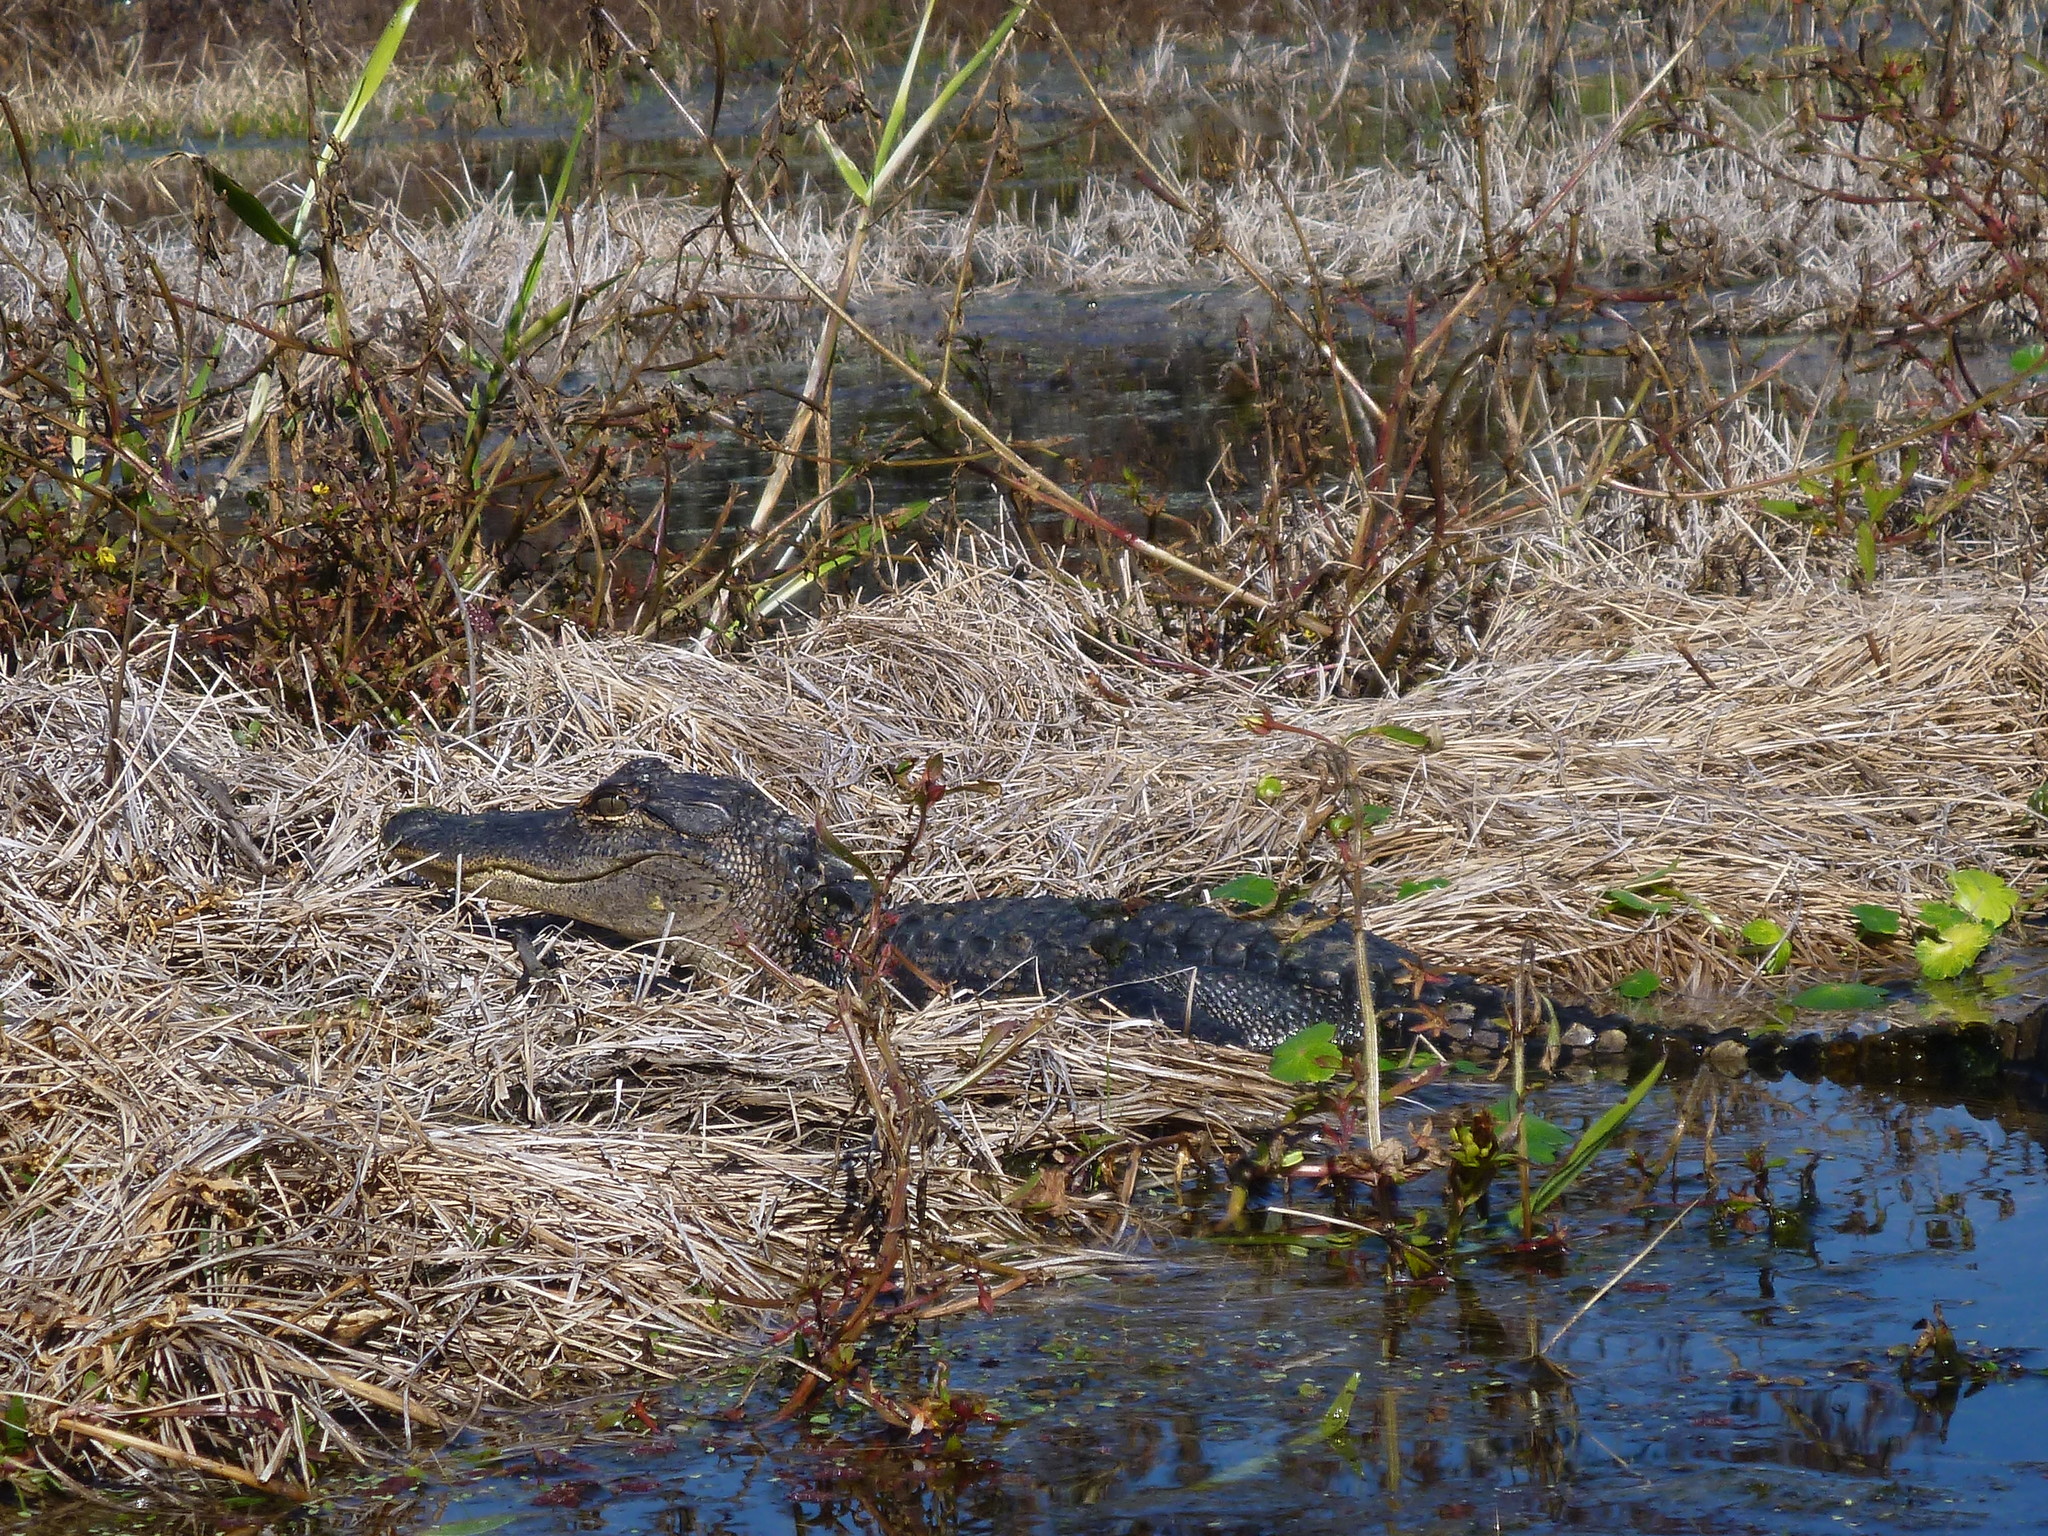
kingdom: Animalia
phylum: Chordata
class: Crocodylia
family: Alligatoridae
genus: Alligator
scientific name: Alligator mississippiensis
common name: American alligator
